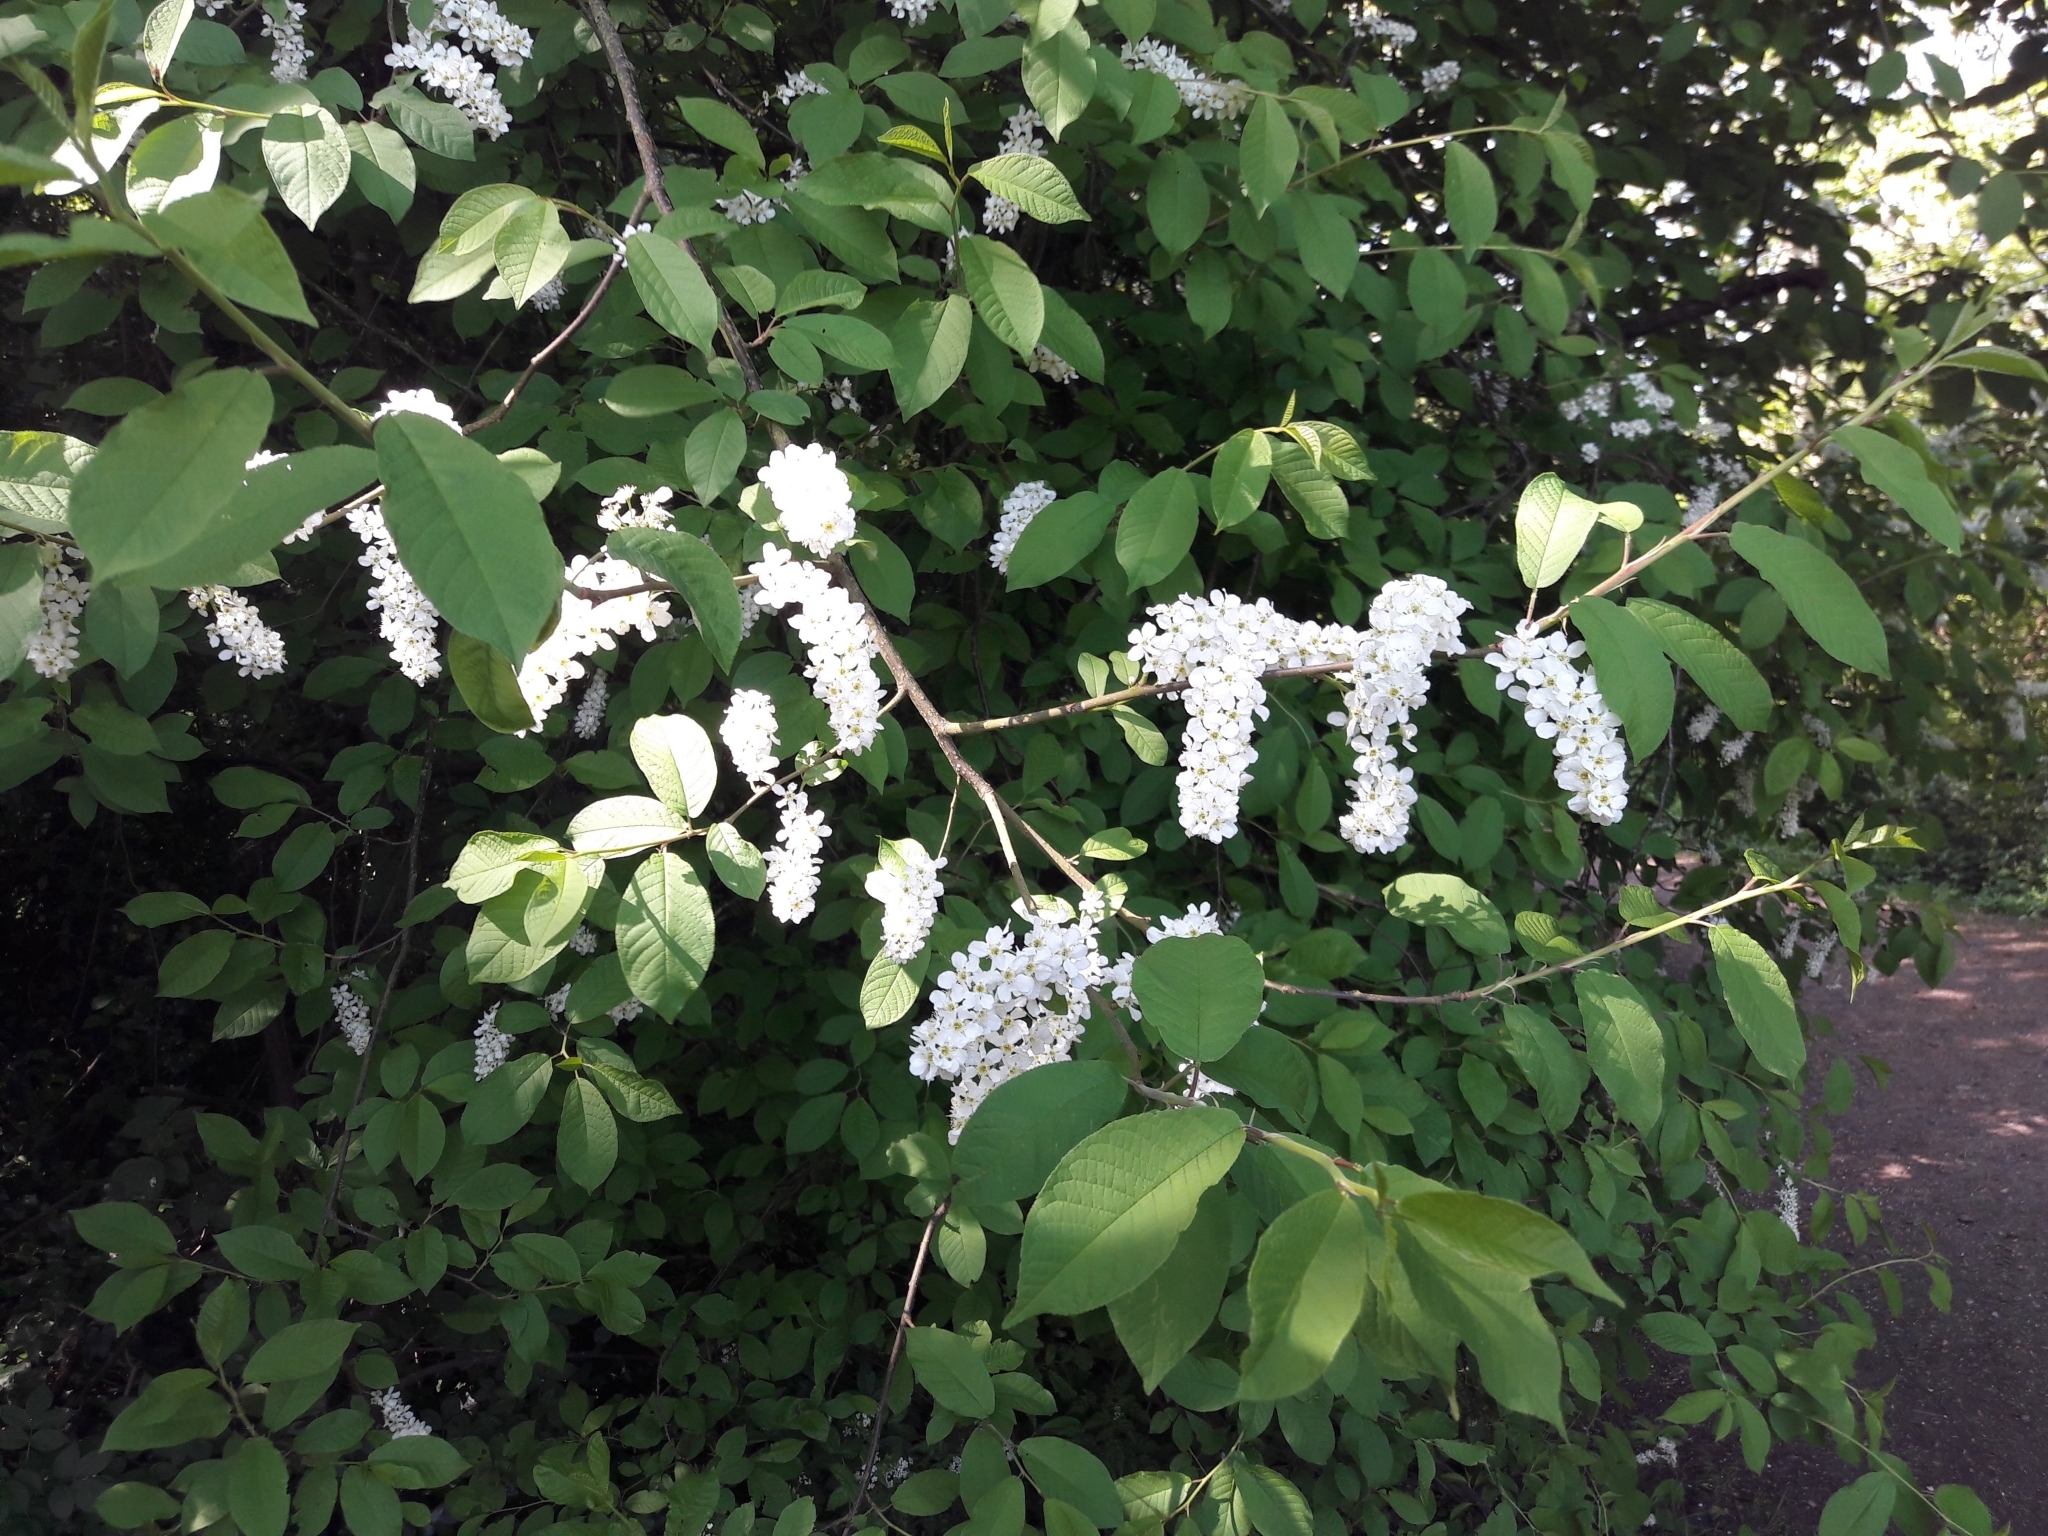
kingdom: Plantae
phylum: Tracheophyta
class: Magnoliopsida
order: Rosales
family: Rosaceae
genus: Prunus
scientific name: Prunus padus
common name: Bird cherry
